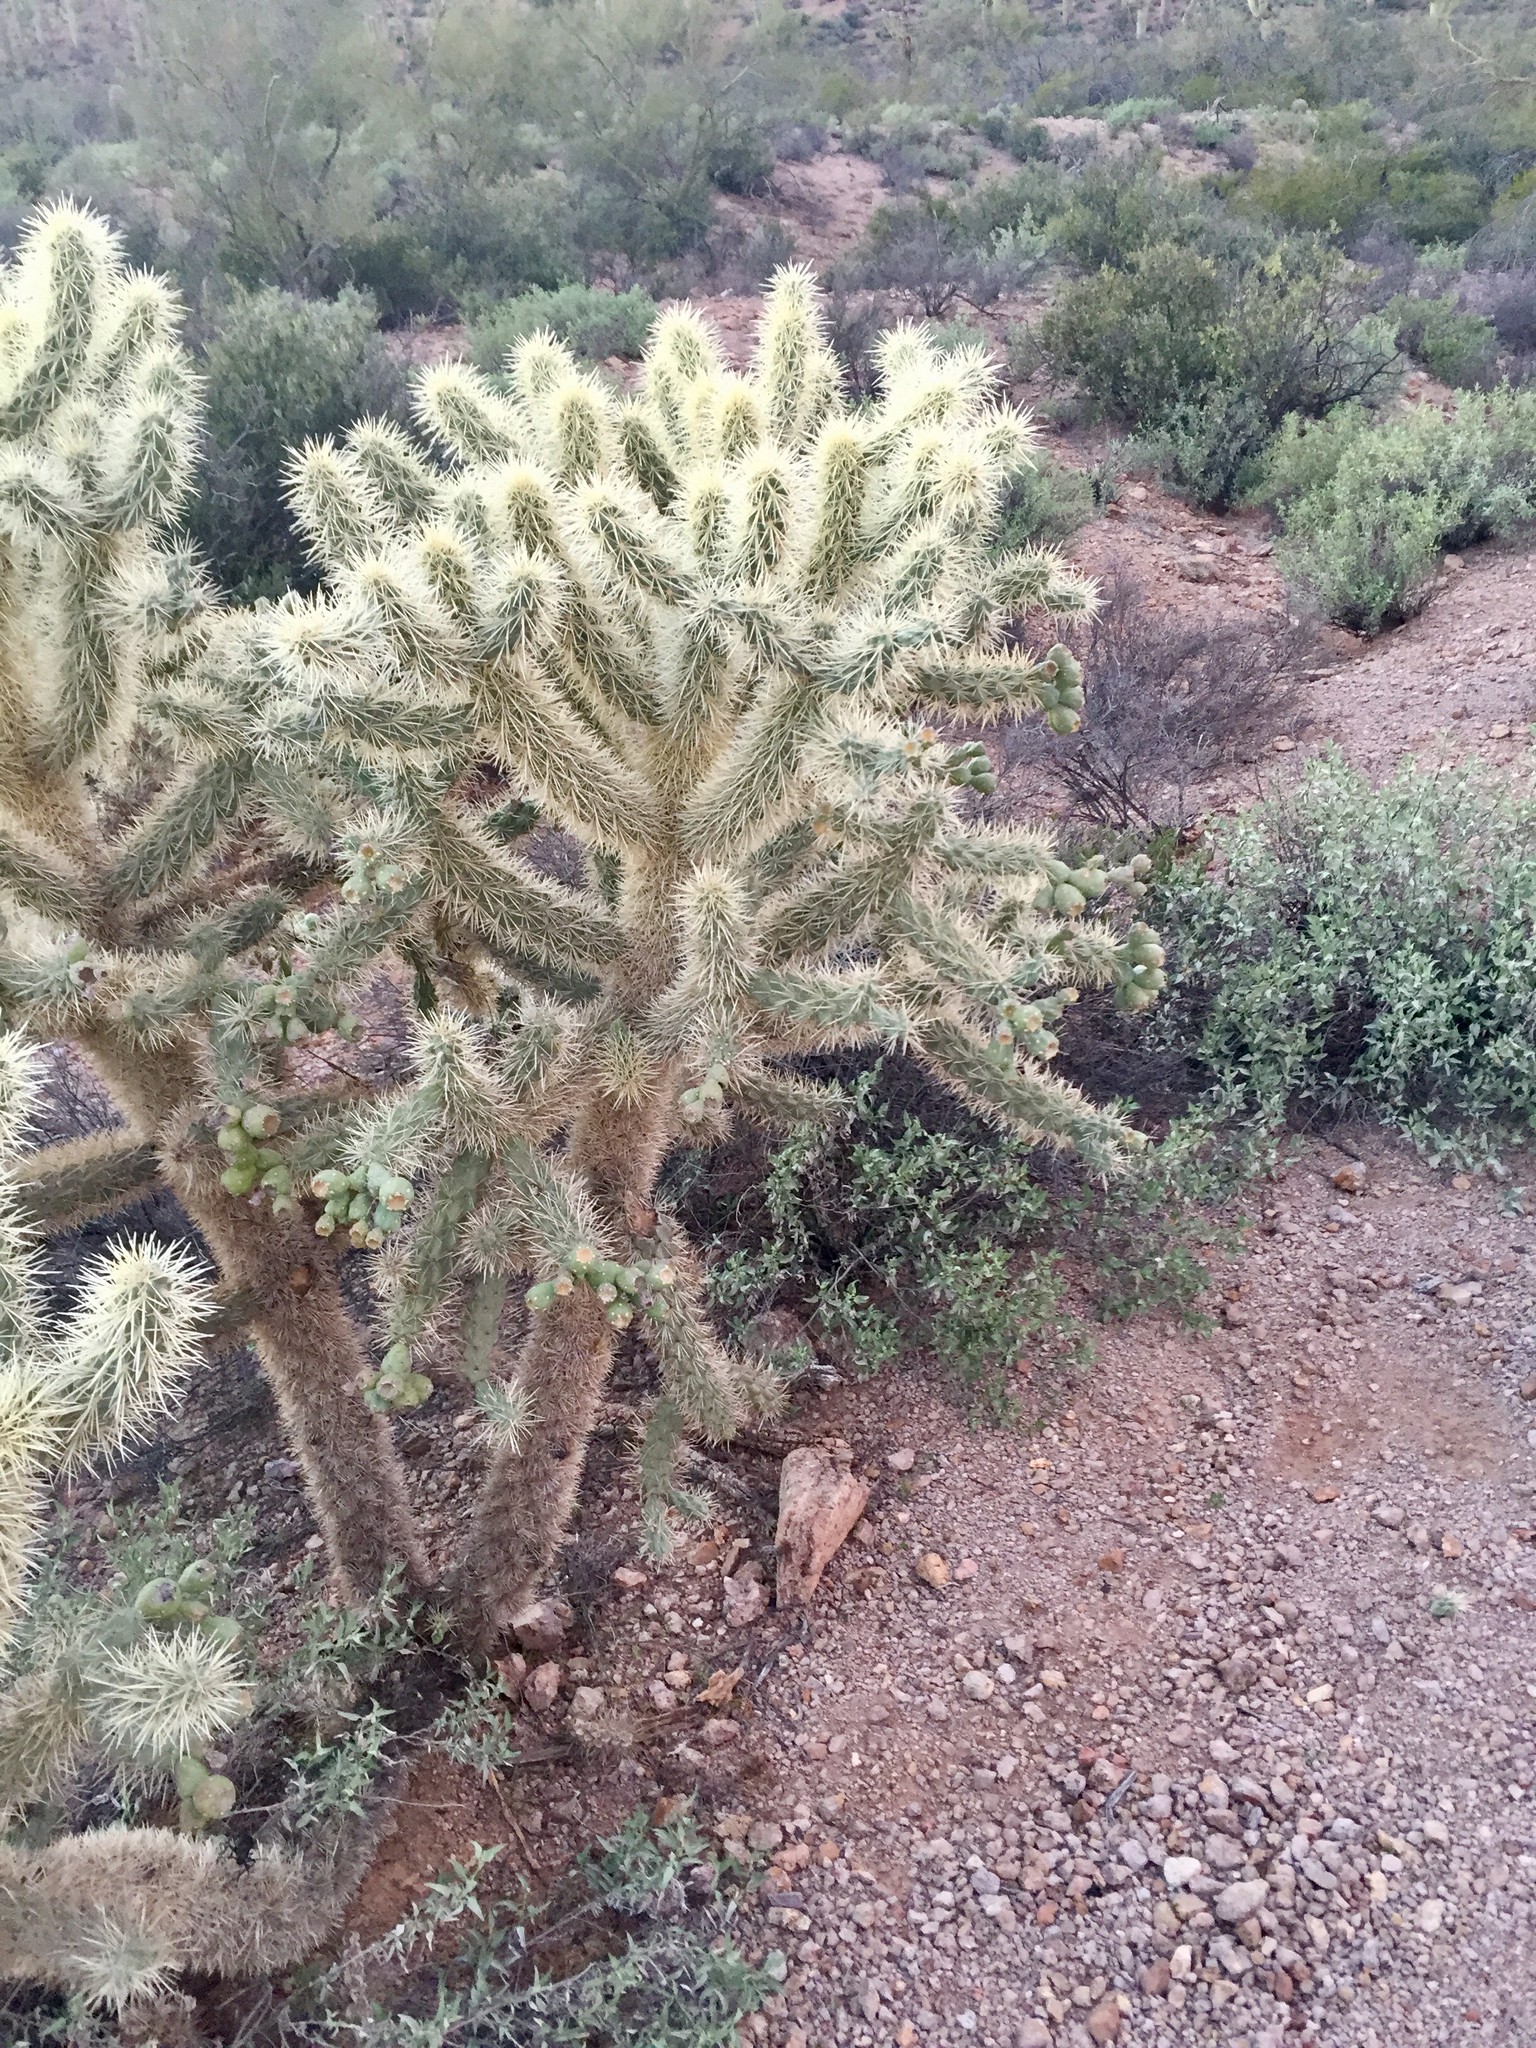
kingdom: Plantae
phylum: Tracheophyta
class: Magnoliopsida
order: Caryophyllales
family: Cactaceae
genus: Cylindropuntia
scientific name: Cylindropuntia fulgida
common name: Jumping cholla
